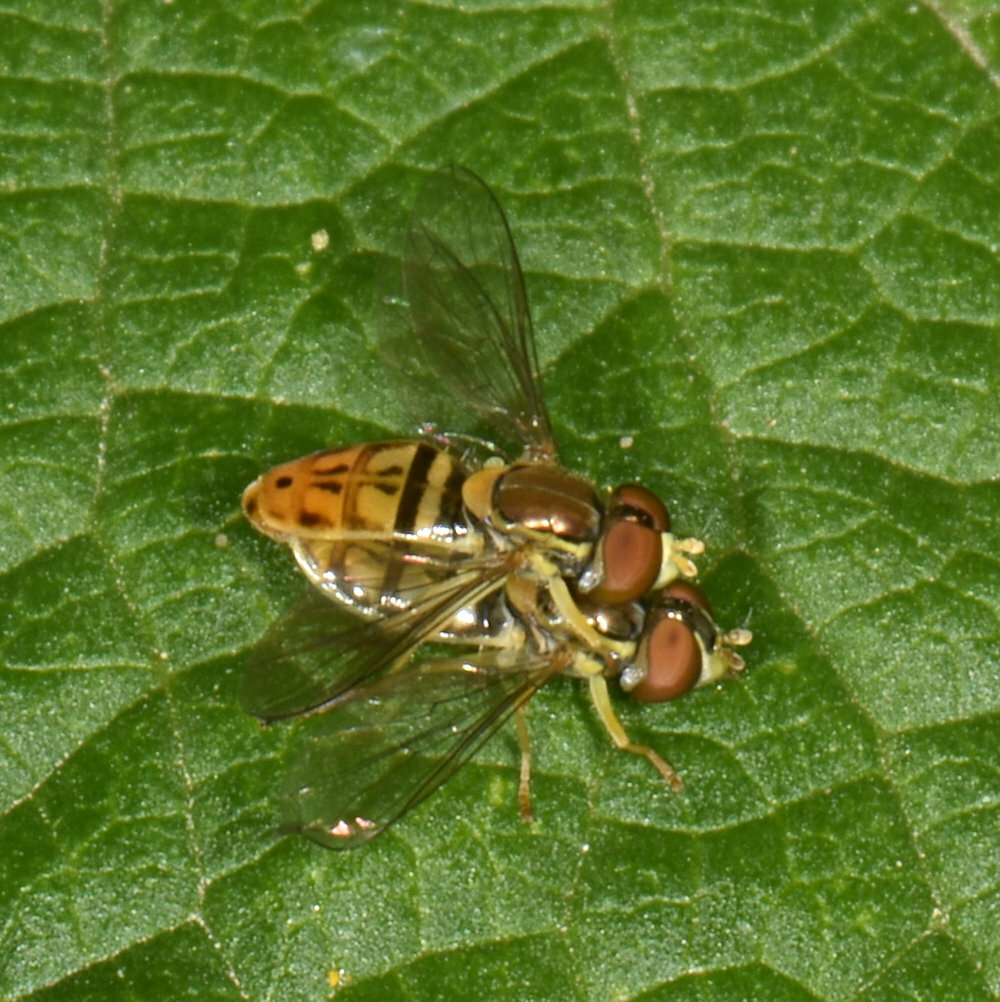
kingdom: Animalia
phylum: Arthropoda
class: Insecta
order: Diptera
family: Syrphidae
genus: Toxomerus
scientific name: Toxomerus marginatus
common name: Syrphid fly
